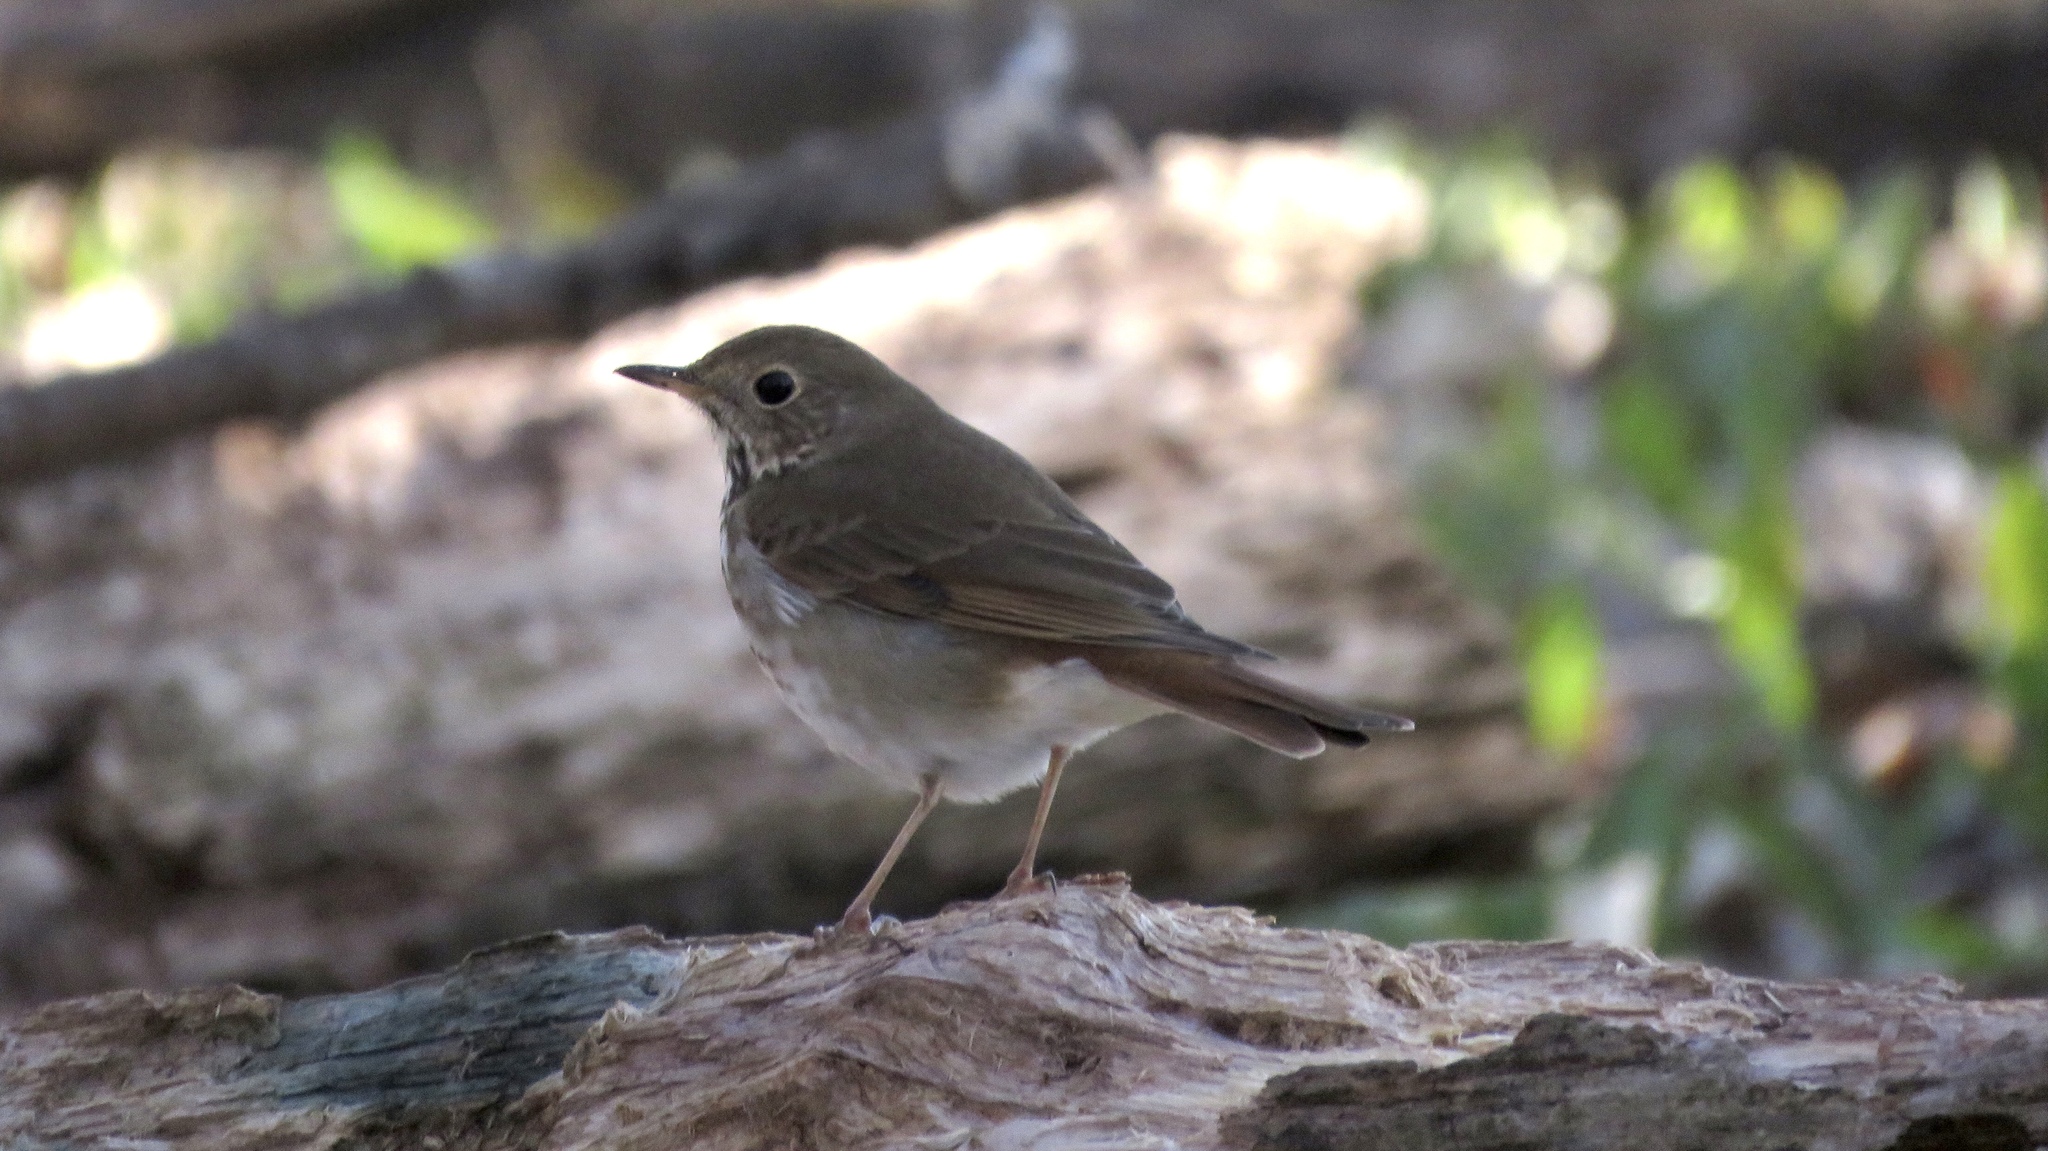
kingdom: Animalia
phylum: Chordata
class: Aves
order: Passeriformes
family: Turdidae
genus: Catharus
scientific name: Catharus guttatus
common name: Hermit thrush
